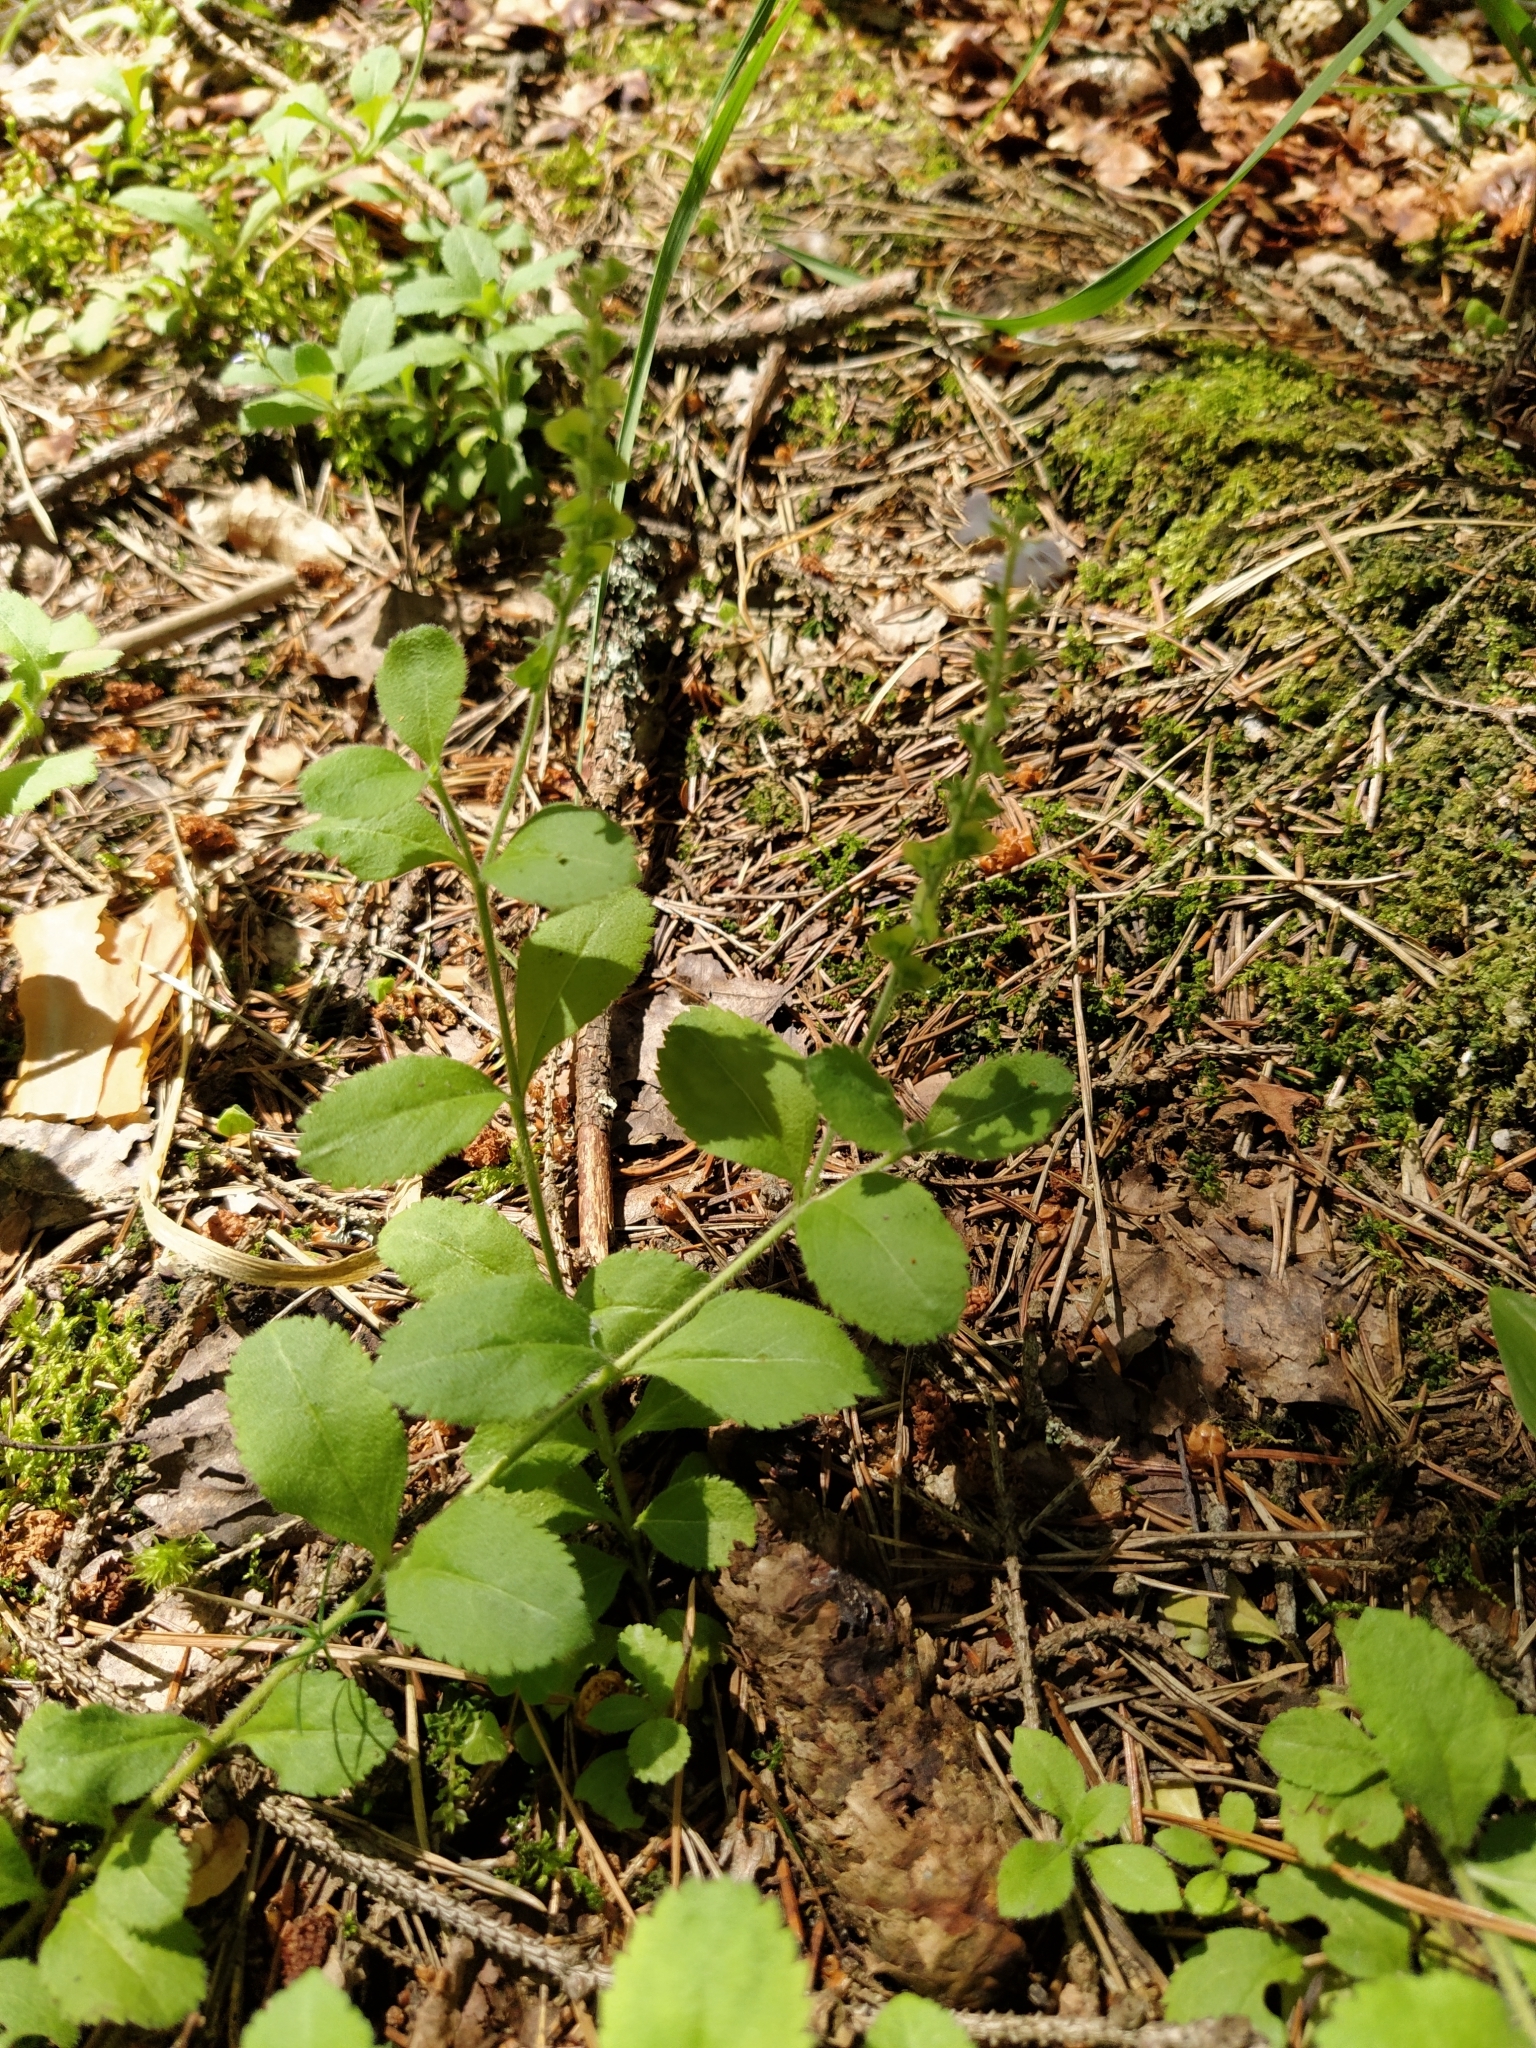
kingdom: Plantae
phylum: Tracheophyta
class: Magnoliopsida
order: Lamiales
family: Plantaginaceae
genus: Veronica
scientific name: Veronica officinalis
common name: Common speedwell
